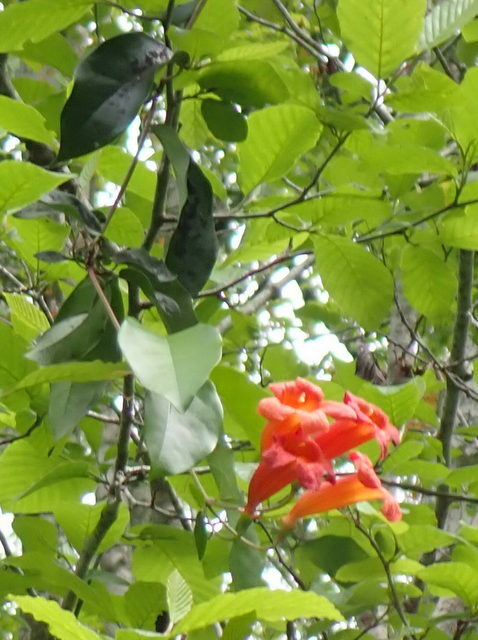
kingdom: Plantae
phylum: Tracheophyta
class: Magnoliopsida
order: Lamiales
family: Bignoniaceae
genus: Bignonia
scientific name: Bignonia capreolata
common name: Crossvine
